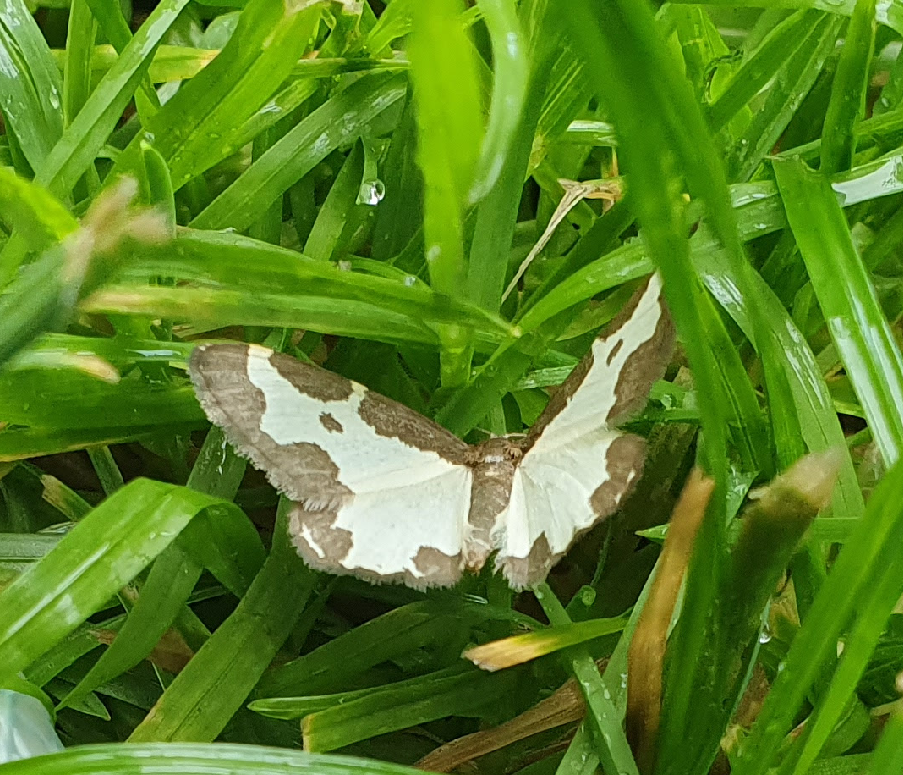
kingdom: Animalia
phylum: Arthropoda
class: Insecta
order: Lepidoptera
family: Geometridae
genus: Lomaspilis
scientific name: Lomaspilis marginata
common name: Clouded border
